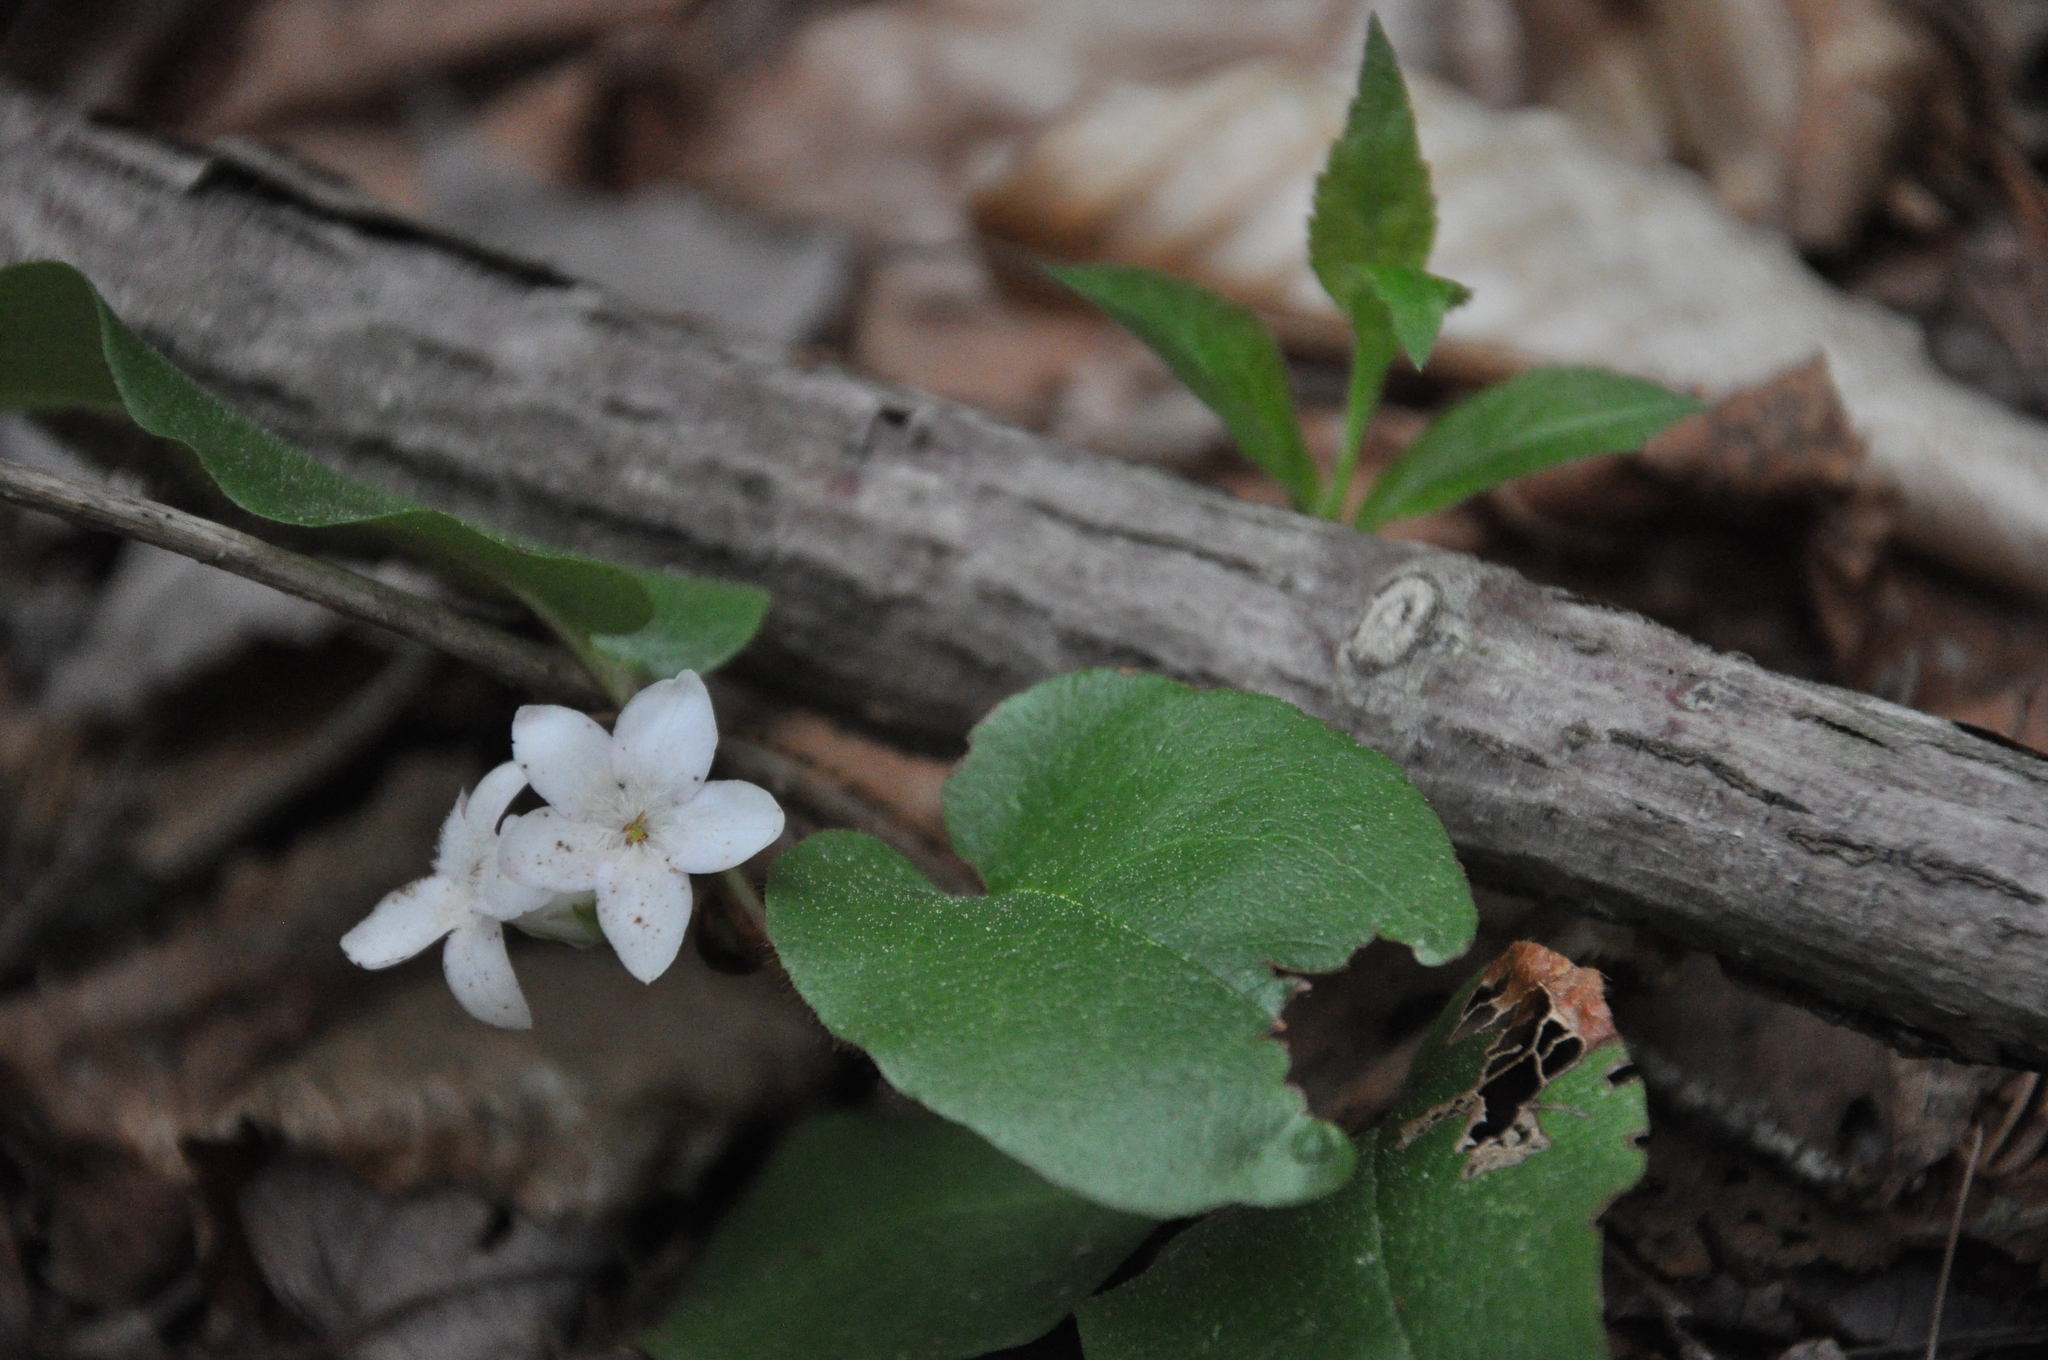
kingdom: Plantae
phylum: Tracheophyta
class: Magnoliopsida
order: Ericales
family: Ericaceae
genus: Epigaea
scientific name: Epigaea repens
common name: Gravelroot
